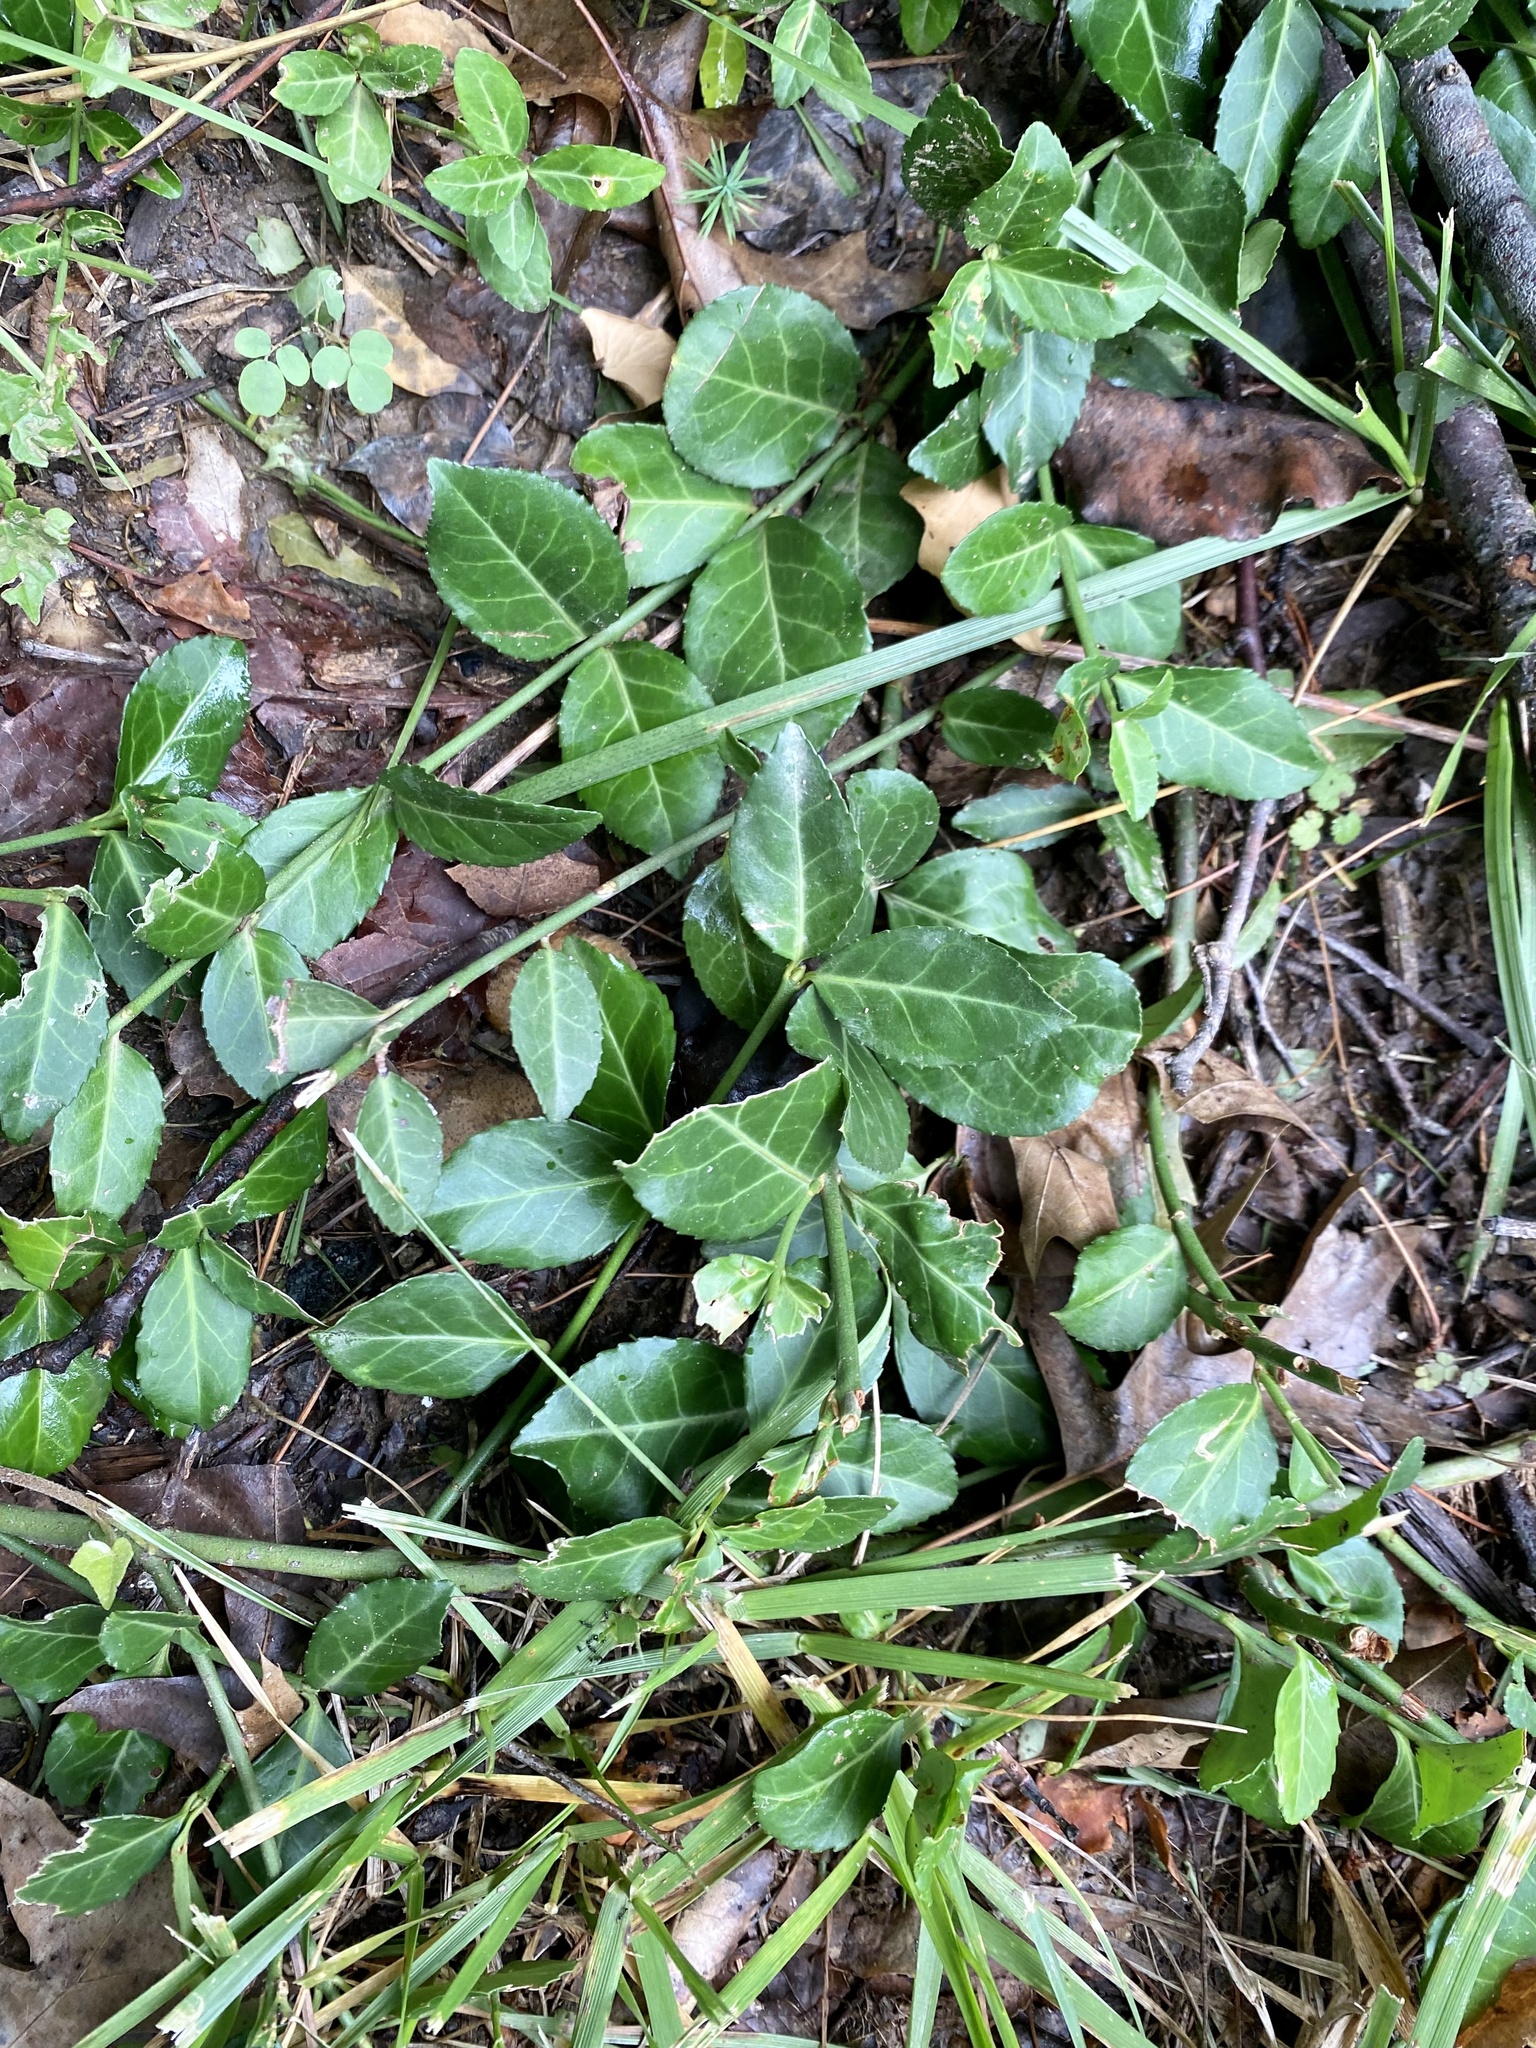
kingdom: Plantae
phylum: Tracheophyta
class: Magnoliopsida
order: Celastrales
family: Celastraceae
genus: Euonymus
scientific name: Euonymus fortunei
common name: Climbing euonymus
